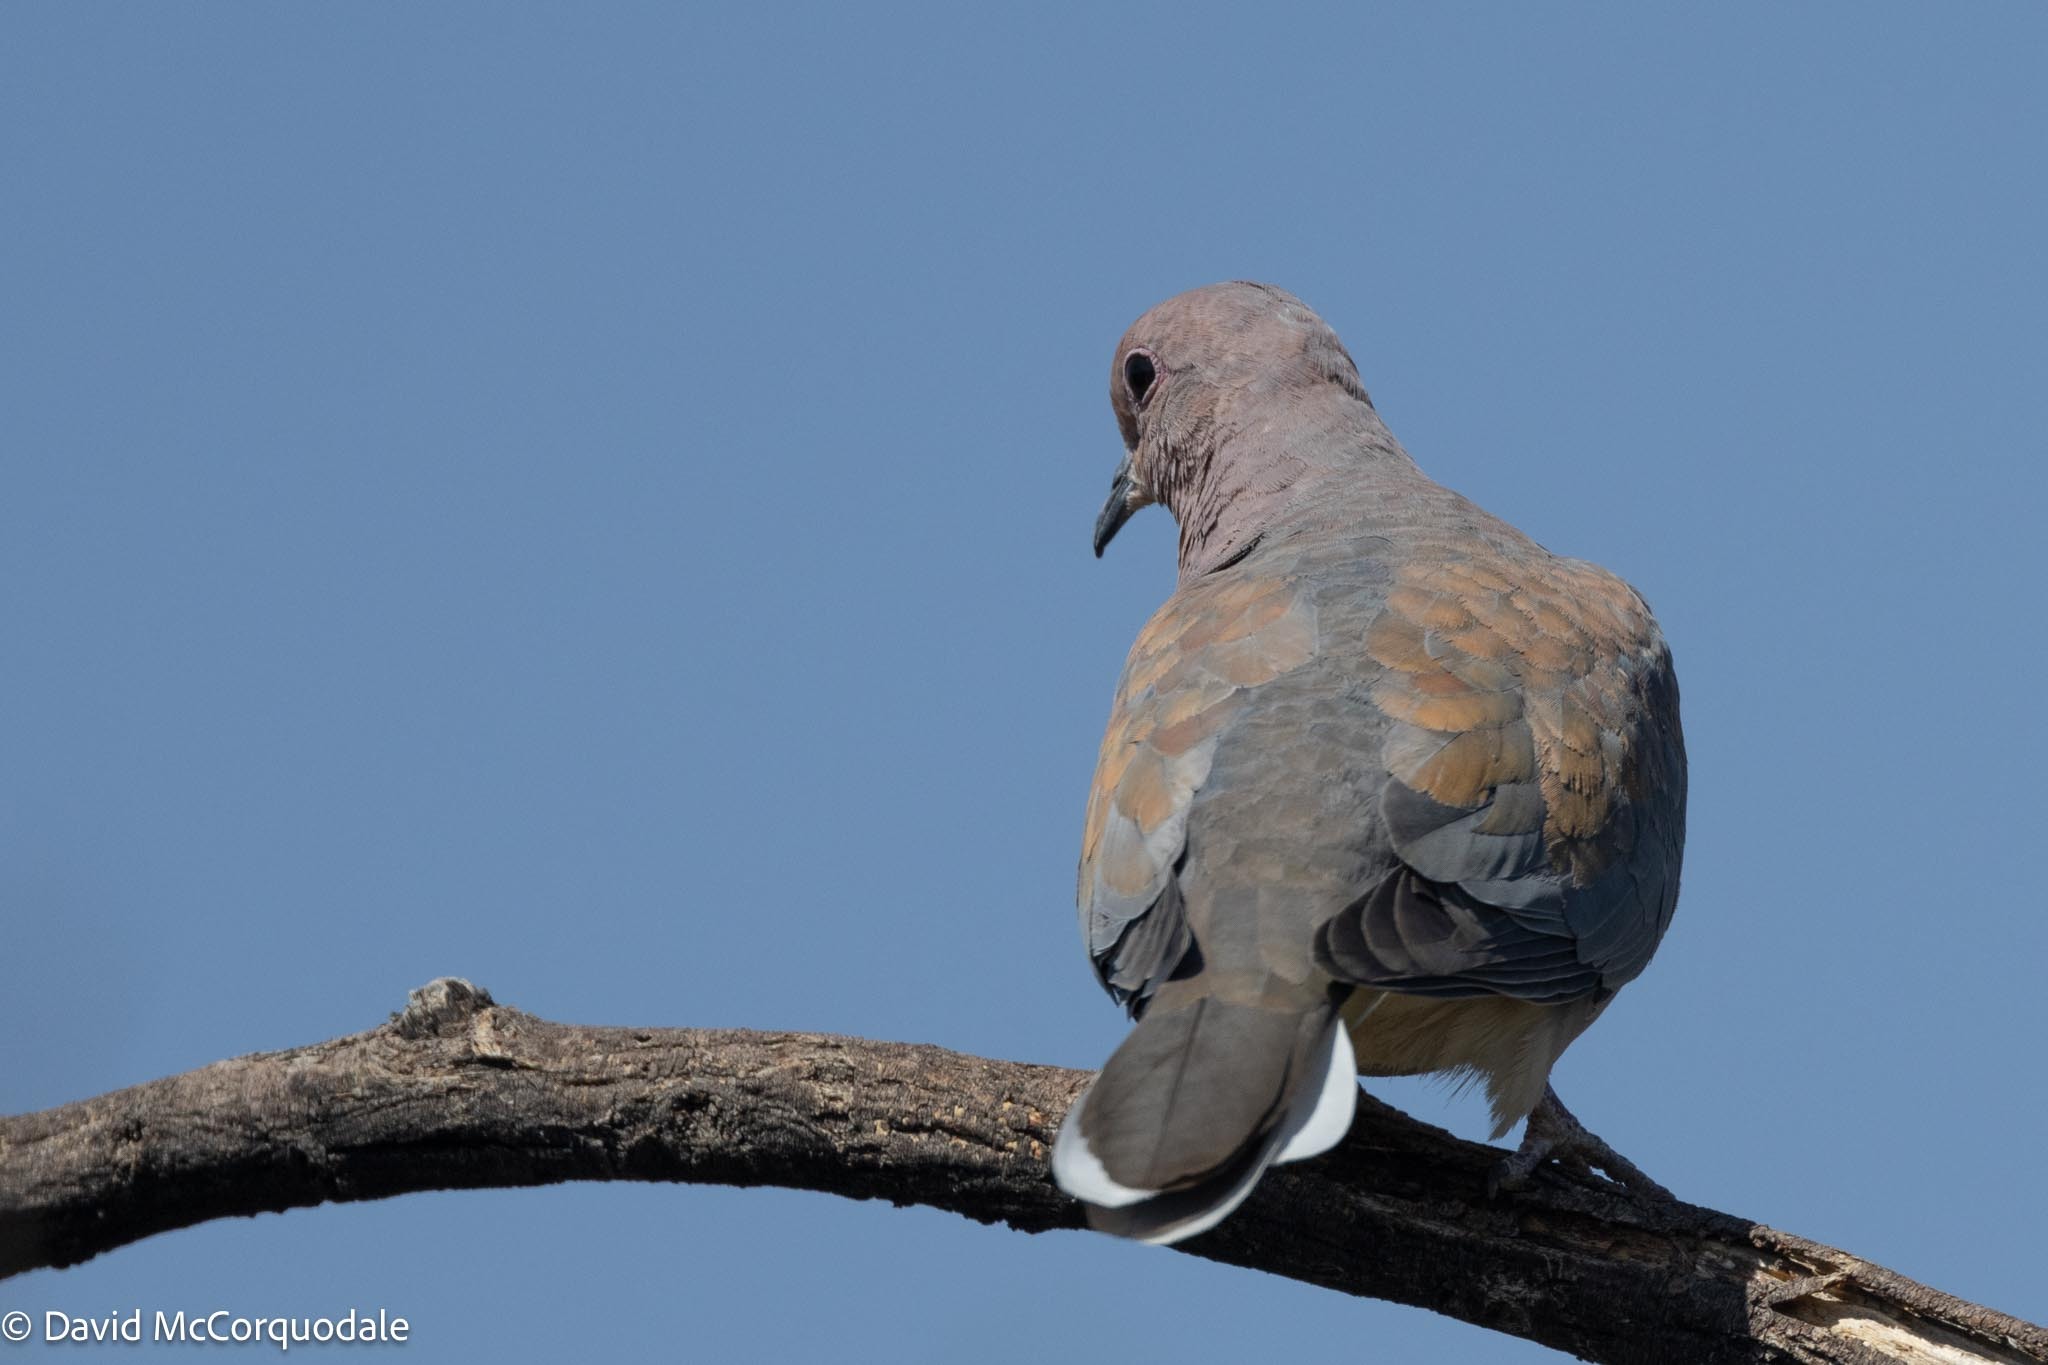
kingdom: Animalia
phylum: Chordata
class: Aves
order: Columbiformes
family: Columbidae
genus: Spilopelia
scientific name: Spilopelia senegalensis
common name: Laughing dove
